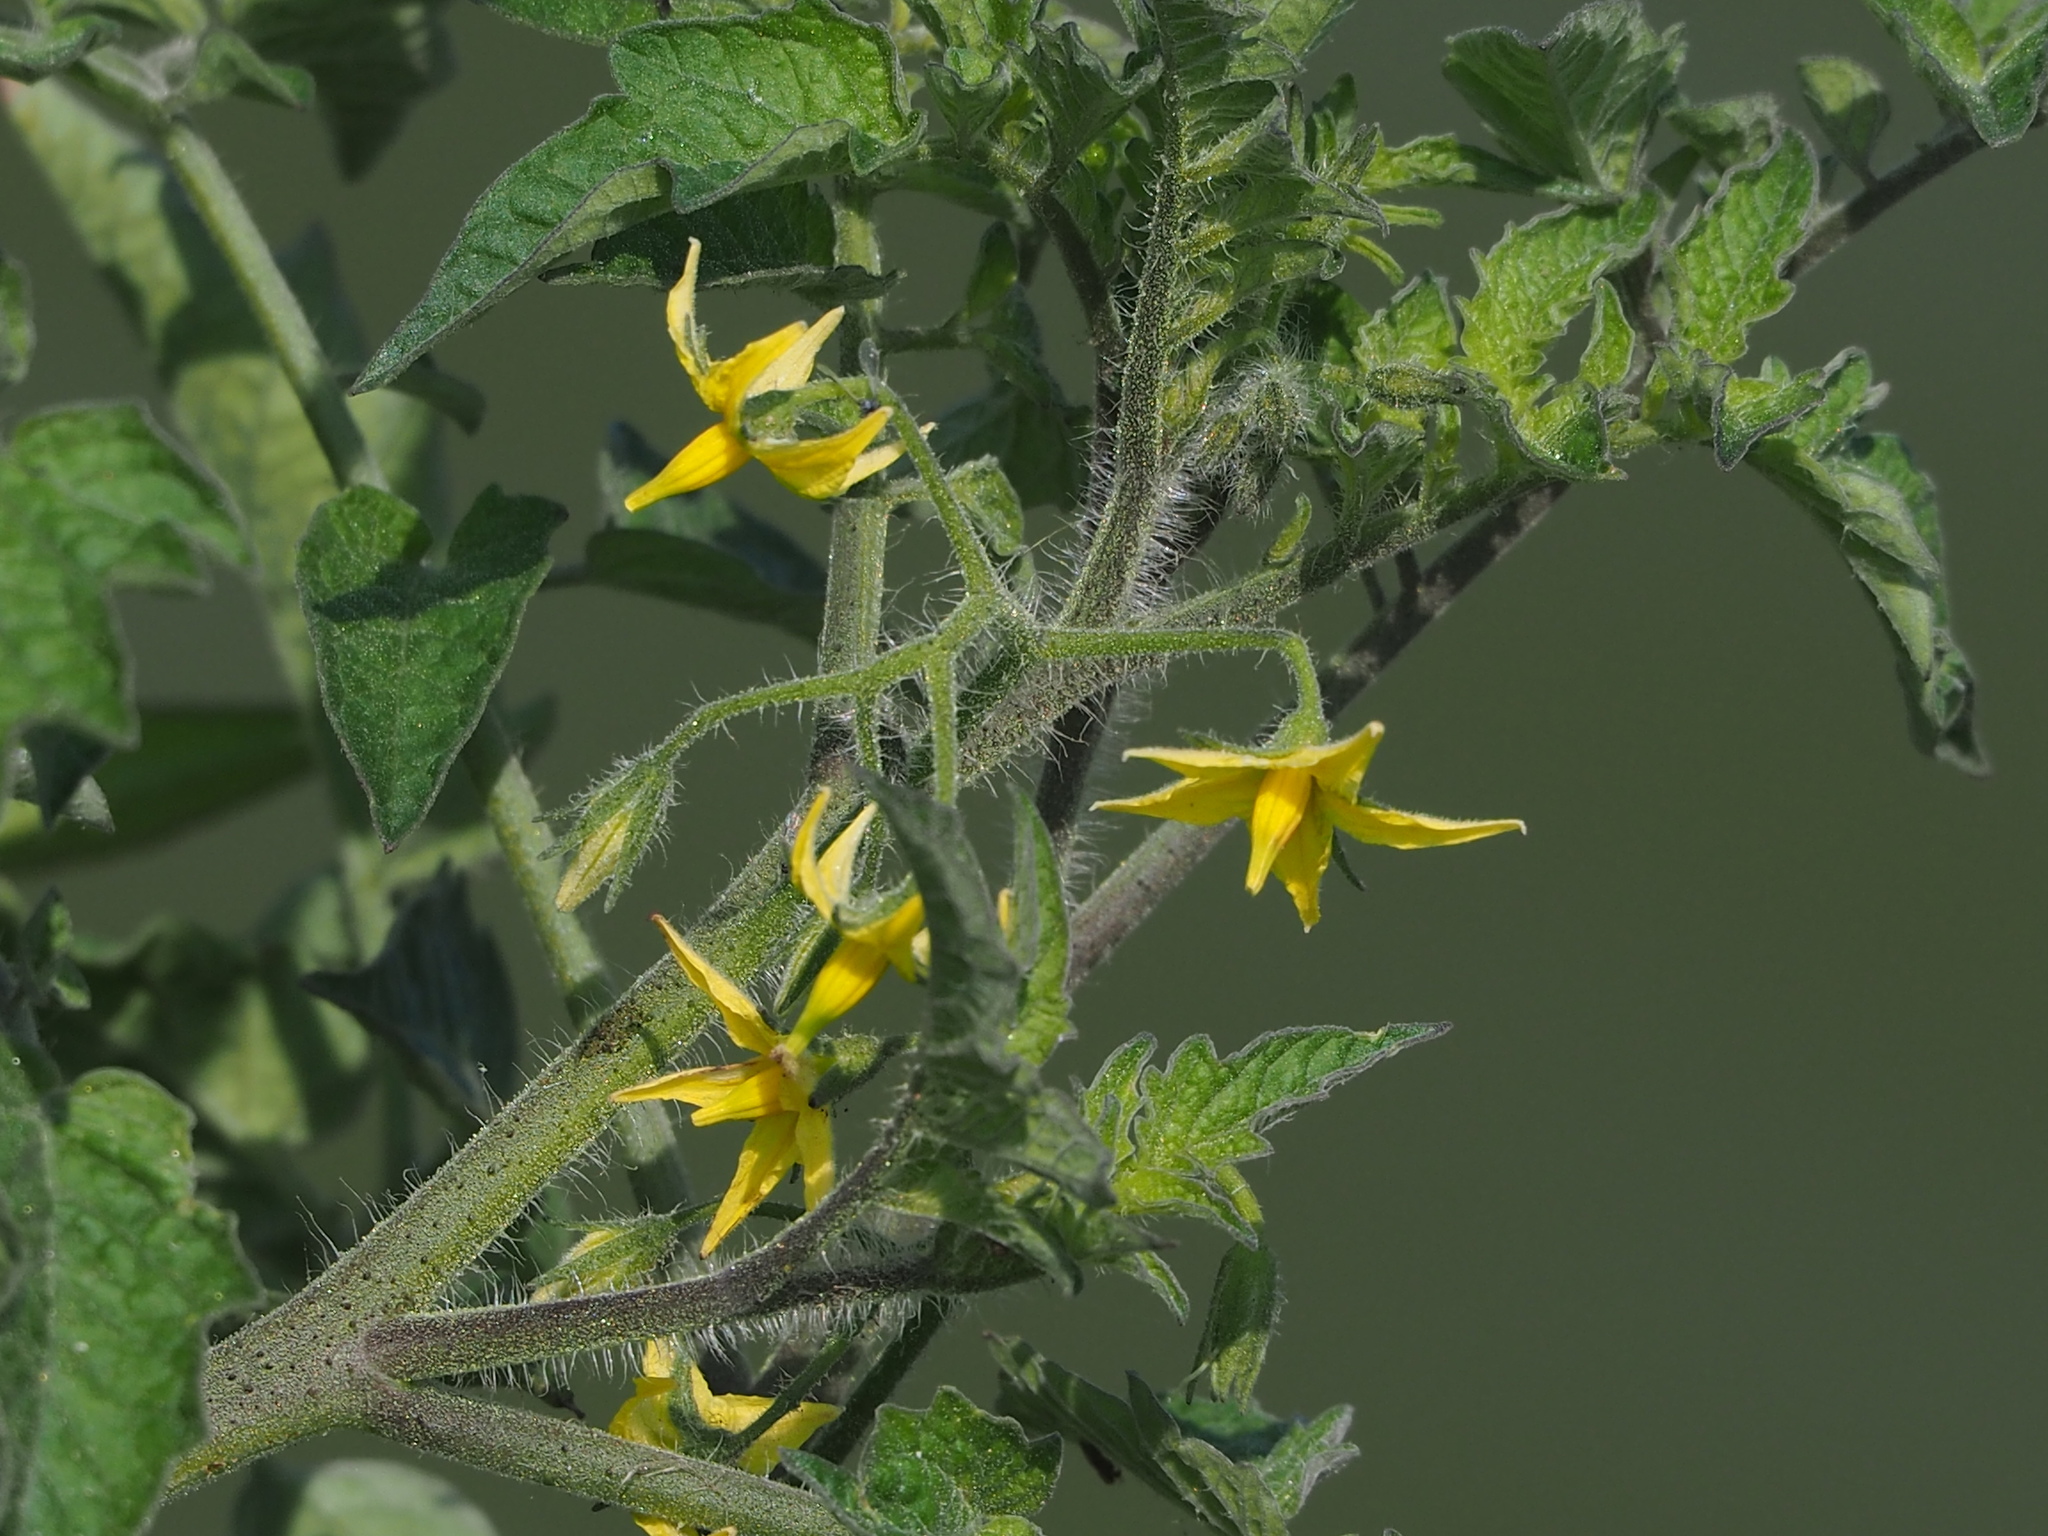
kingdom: Plantae
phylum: Tracheophyta
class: Magnoliopsida
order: Solanales
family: Solanaceae
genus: Solanum
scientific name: Solanum lycopersicum
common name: Garden tomato
